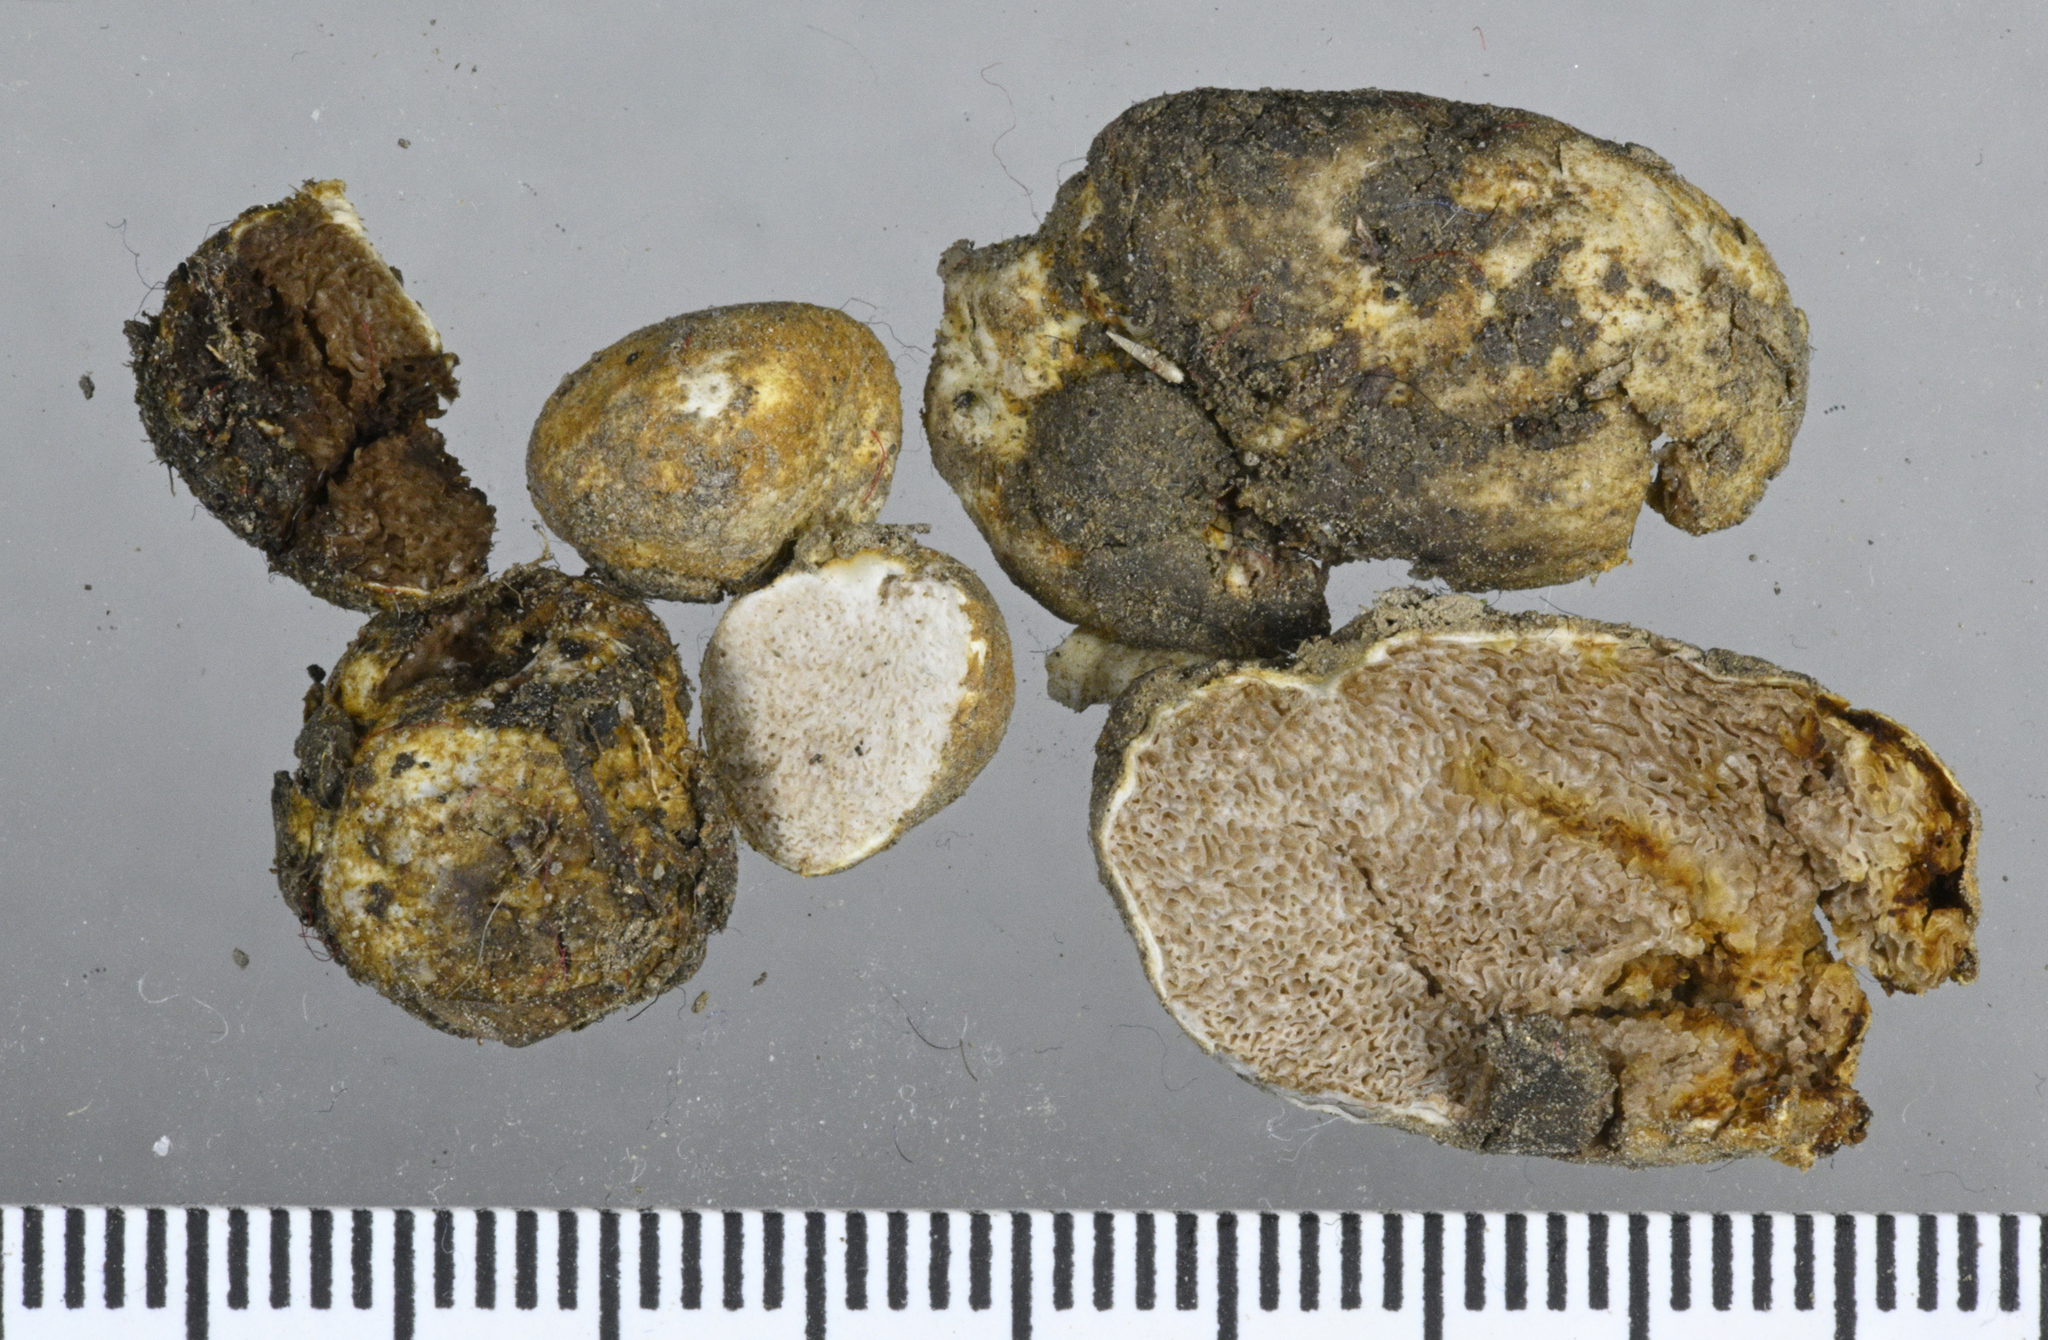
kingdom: Fungi
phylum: Basidiomycota
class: Agaricomycetes
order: Agaricales
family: Bolbitiaceae
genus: Descomyces
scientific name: Descomyces
